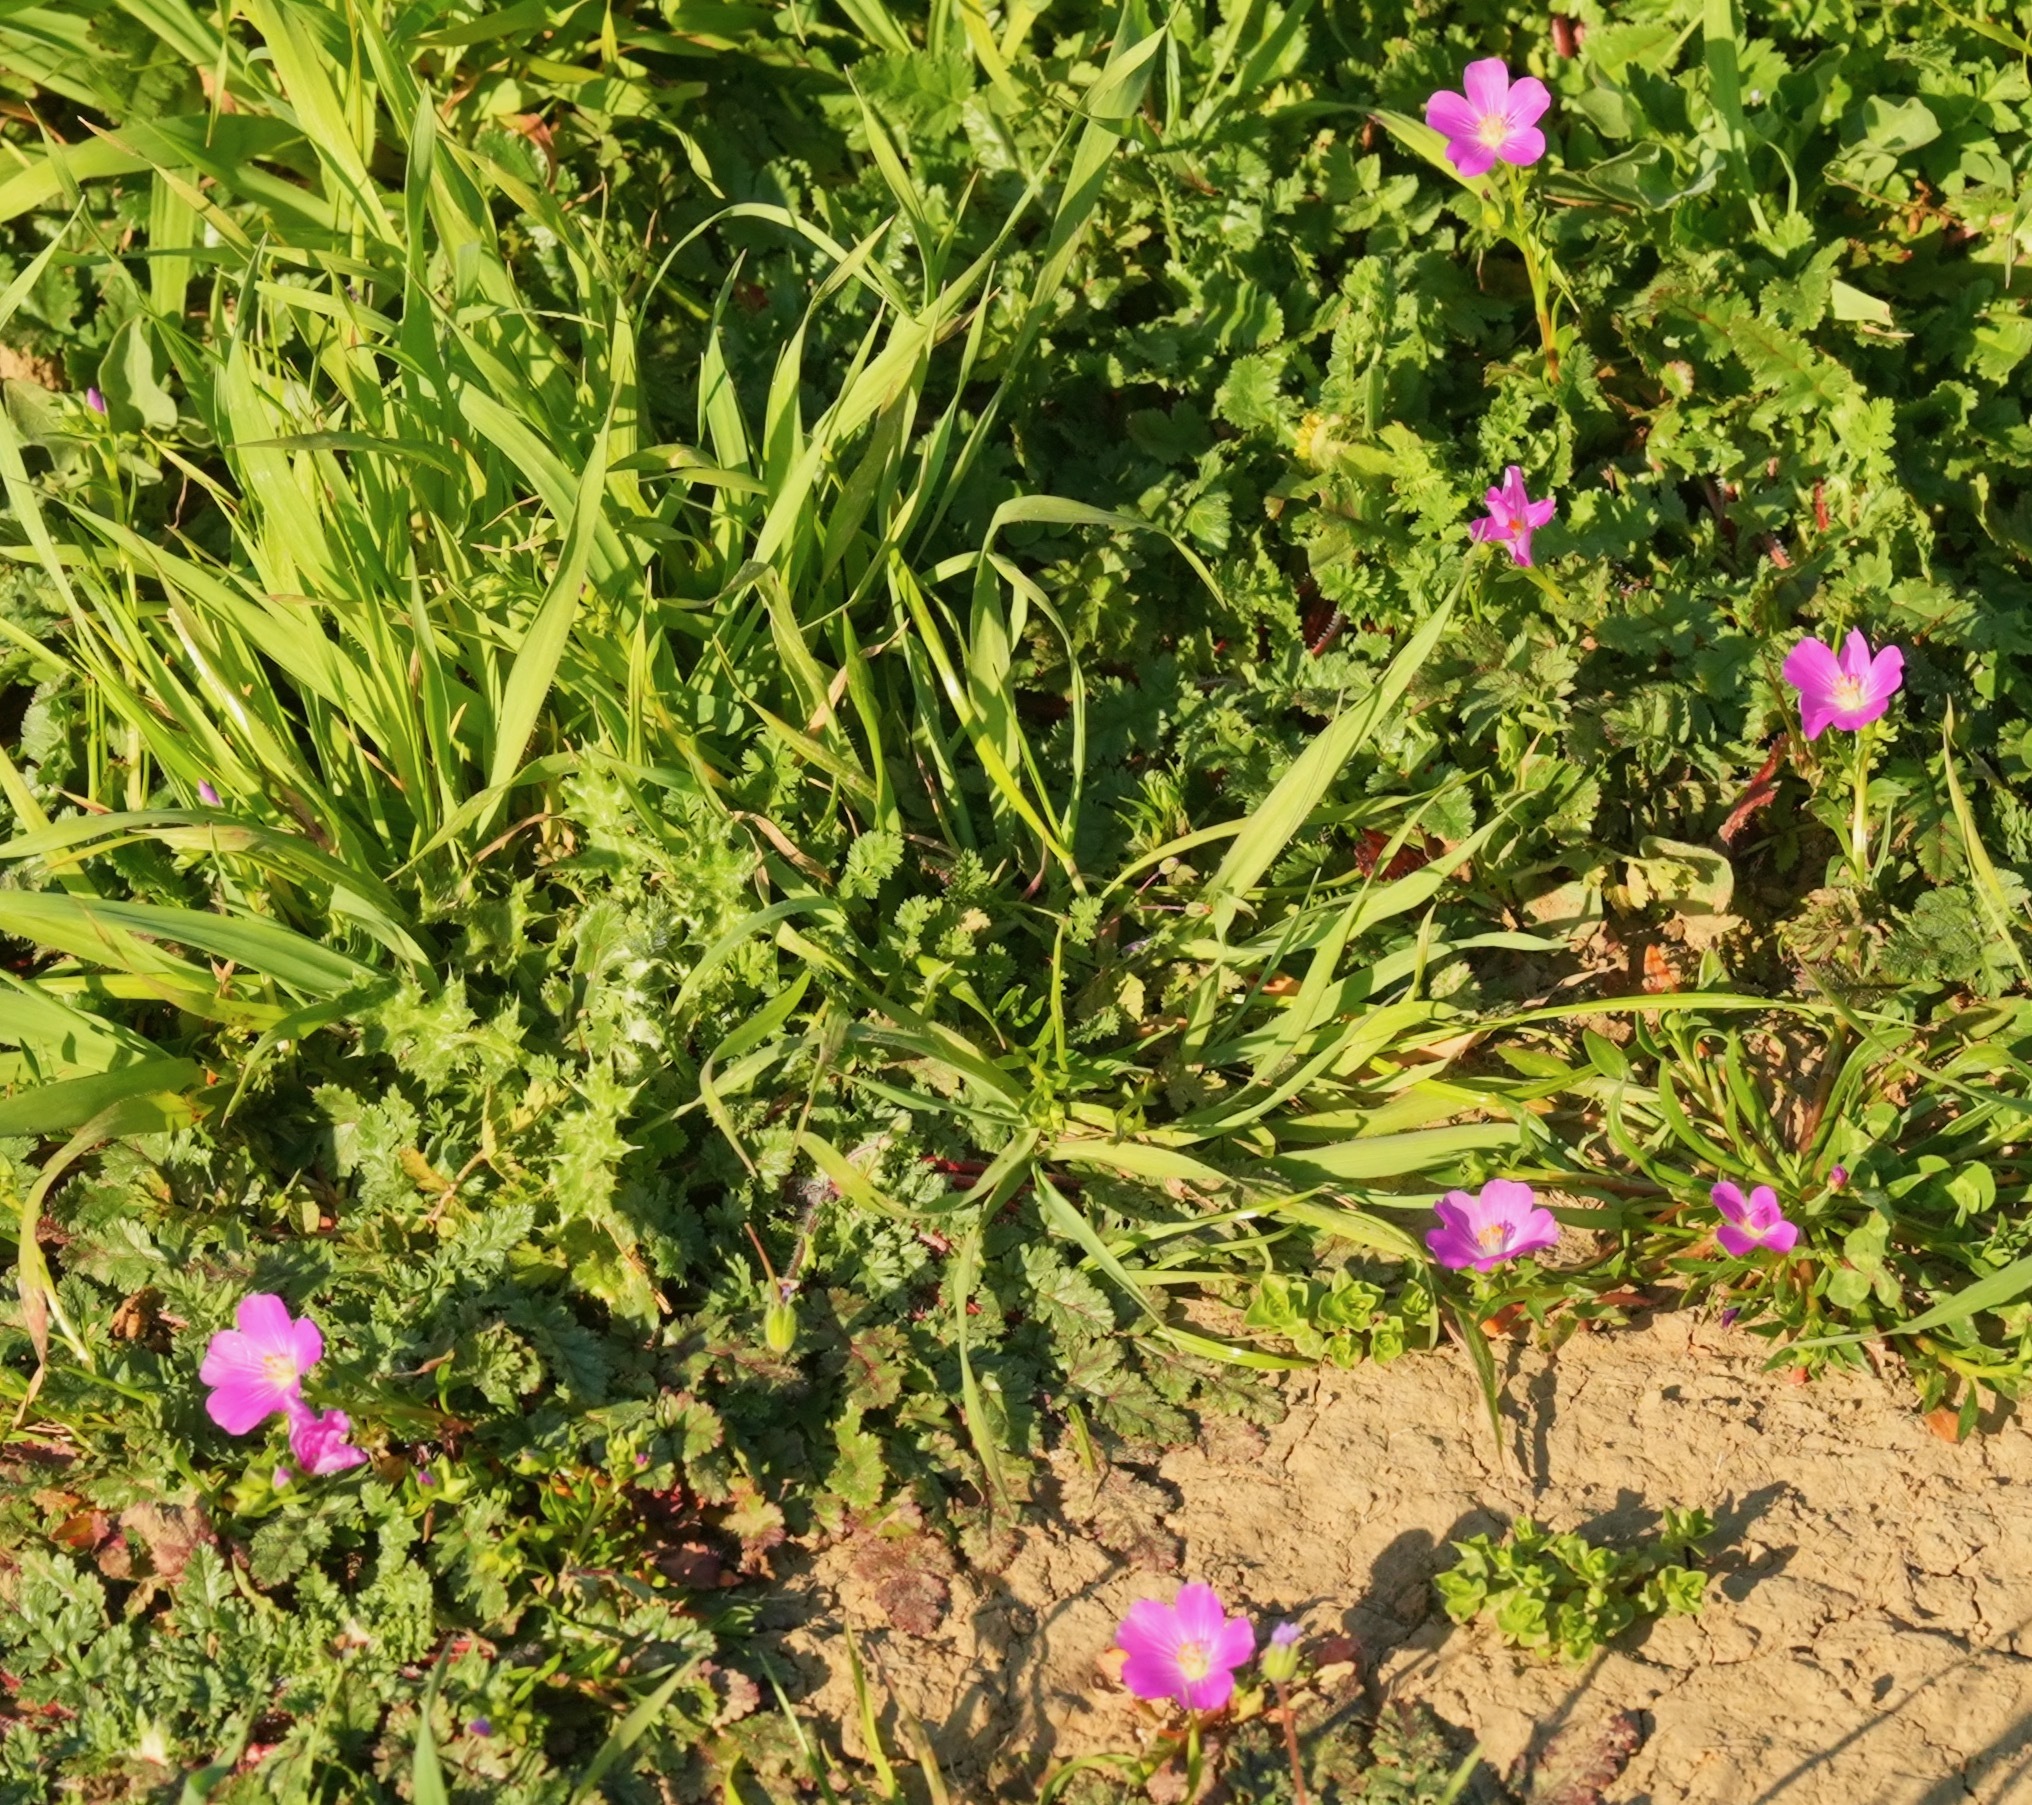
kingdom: Plantae
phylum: Tracheophyta
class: Magnoliopsida
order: Caryophyllales
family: Montiaceae
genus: Calandrinia
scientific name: Calandrinia menziesii
